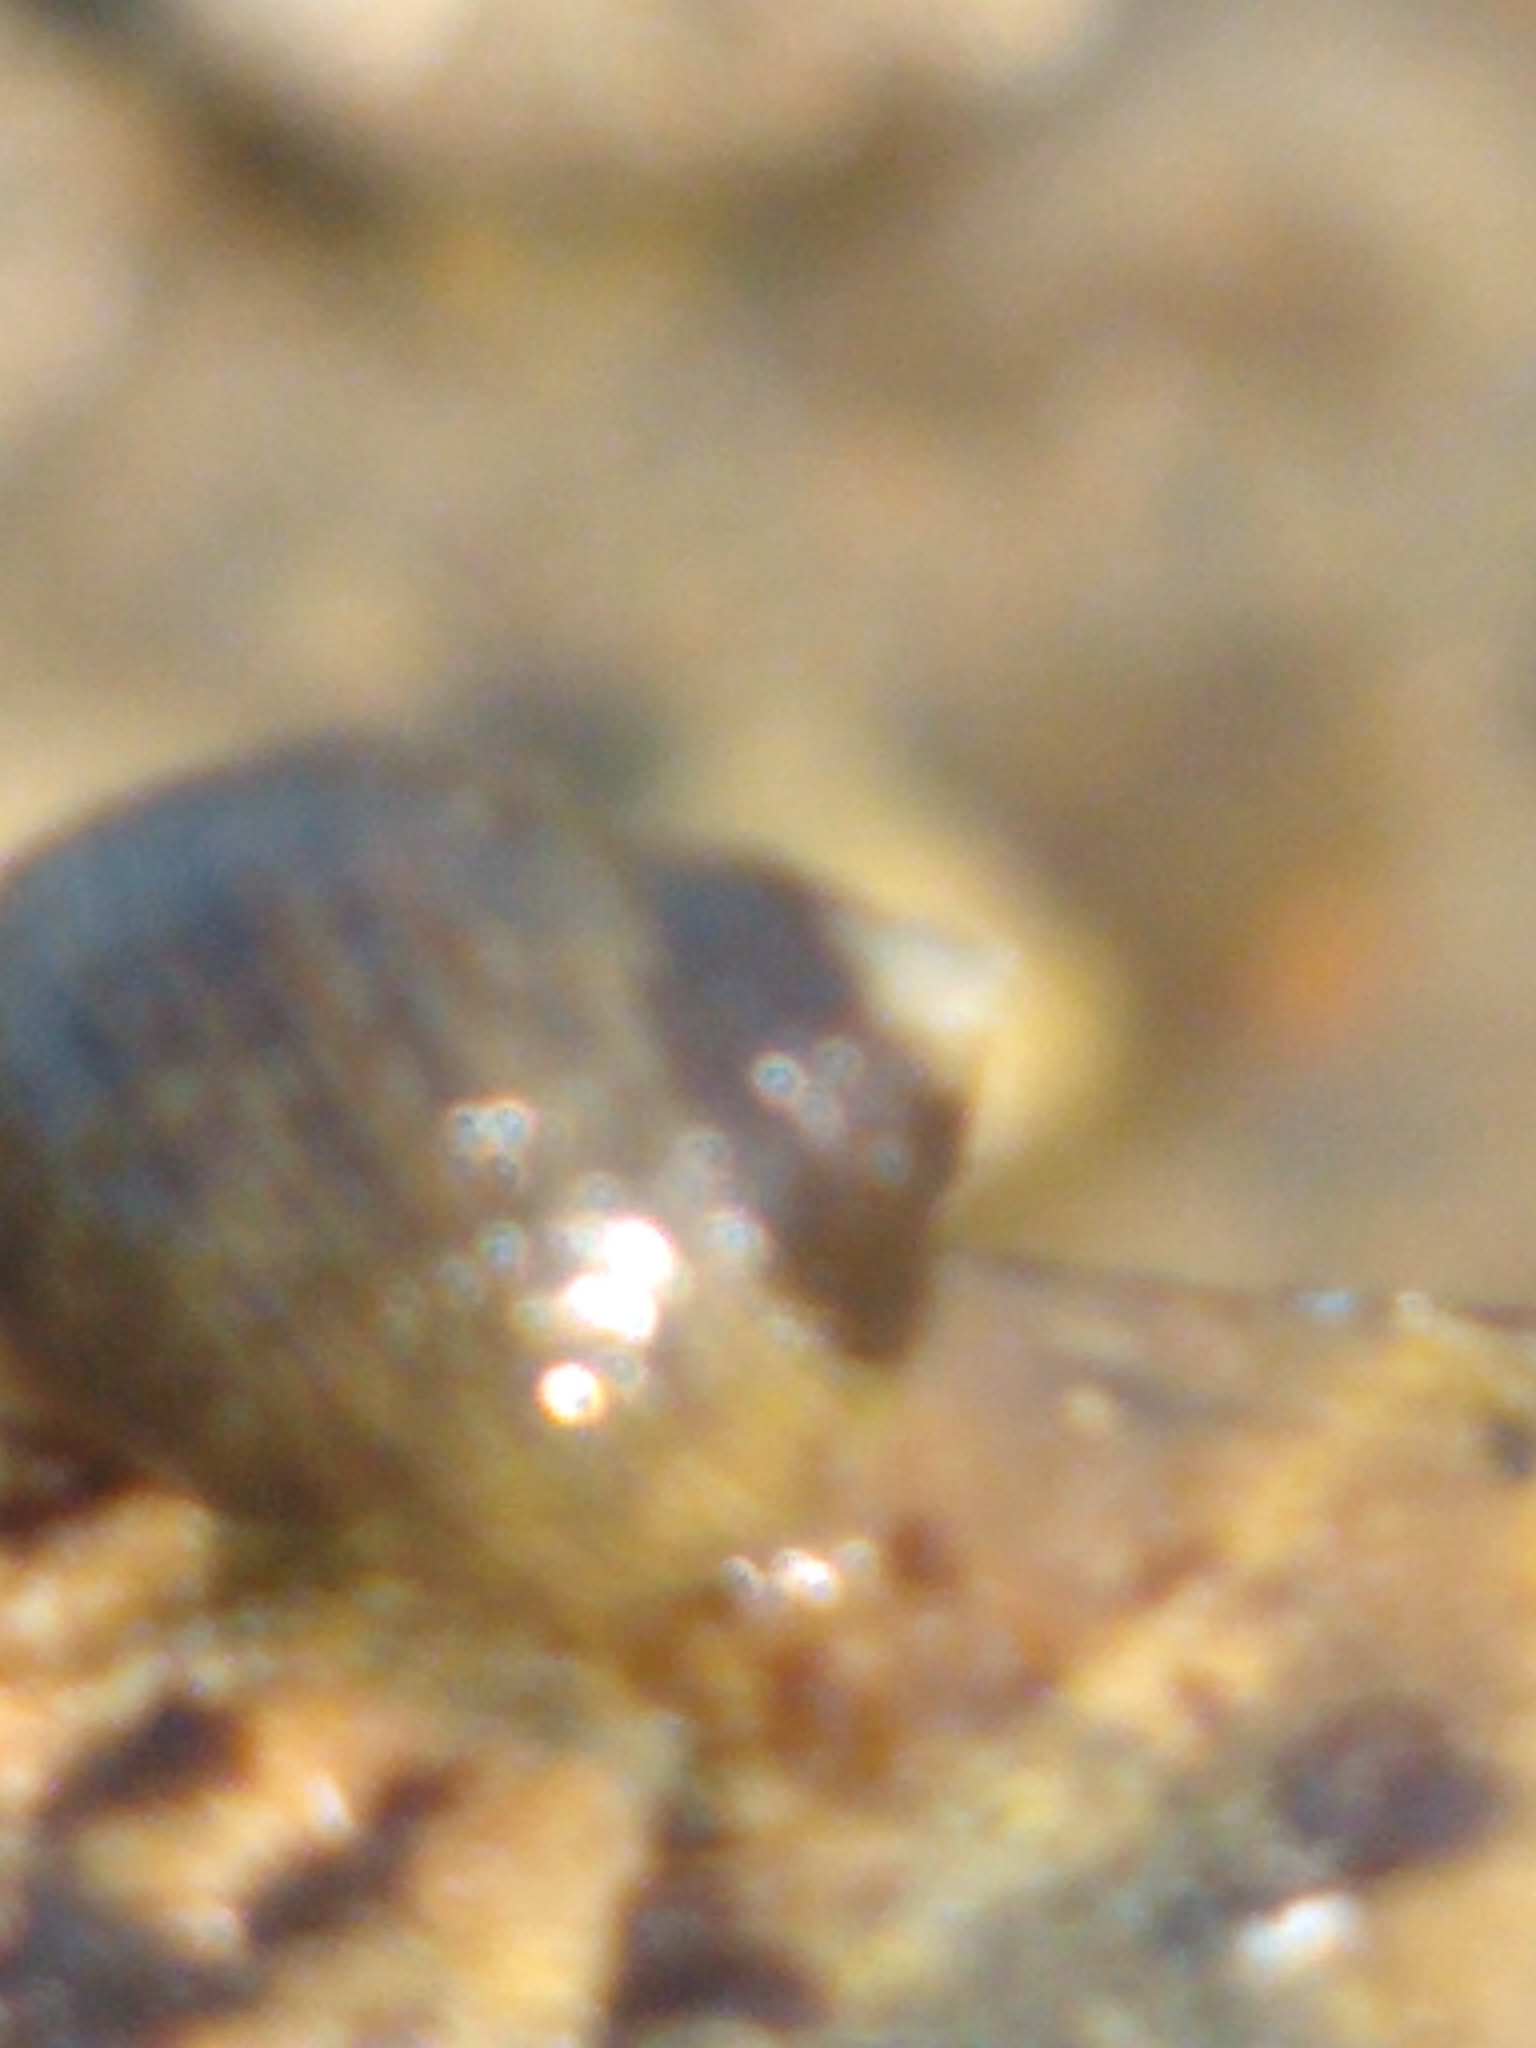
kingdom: Animalia
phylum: Mollusca
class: Gastropoda
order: Littorinimorpha
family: Littorinidae
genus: Littorina
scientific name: Littorina littorea
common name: Common periwinkle
